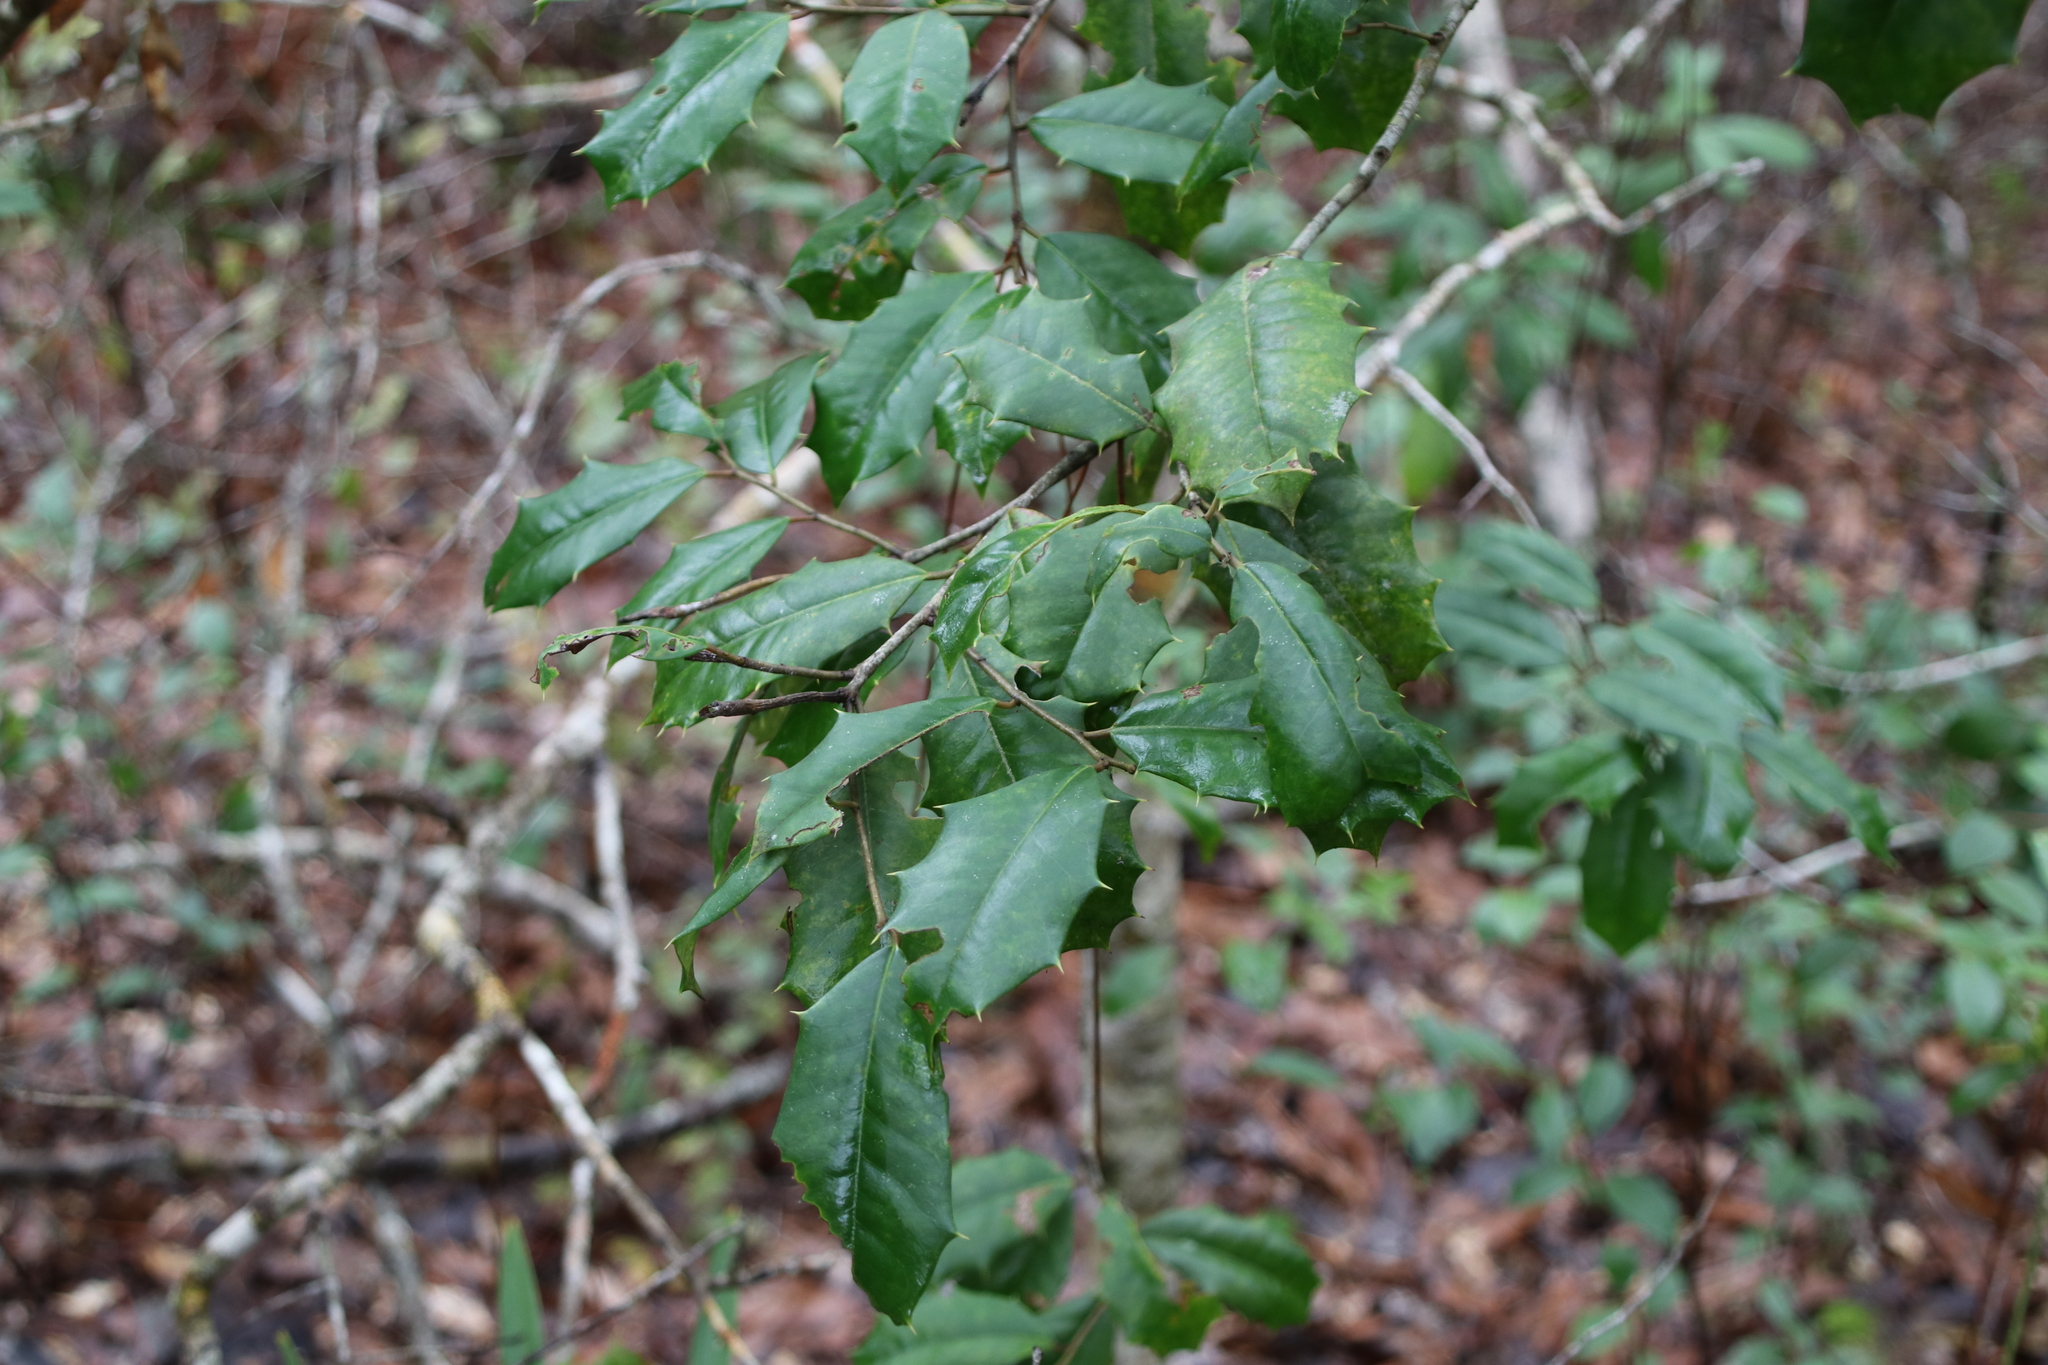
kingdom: Plantae
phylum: Tracheophyta
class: Magnoliopsida
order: Aquifoliales
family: Aquifoliaceae
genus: Ilex
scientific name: Ilex opaca
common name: American holly
